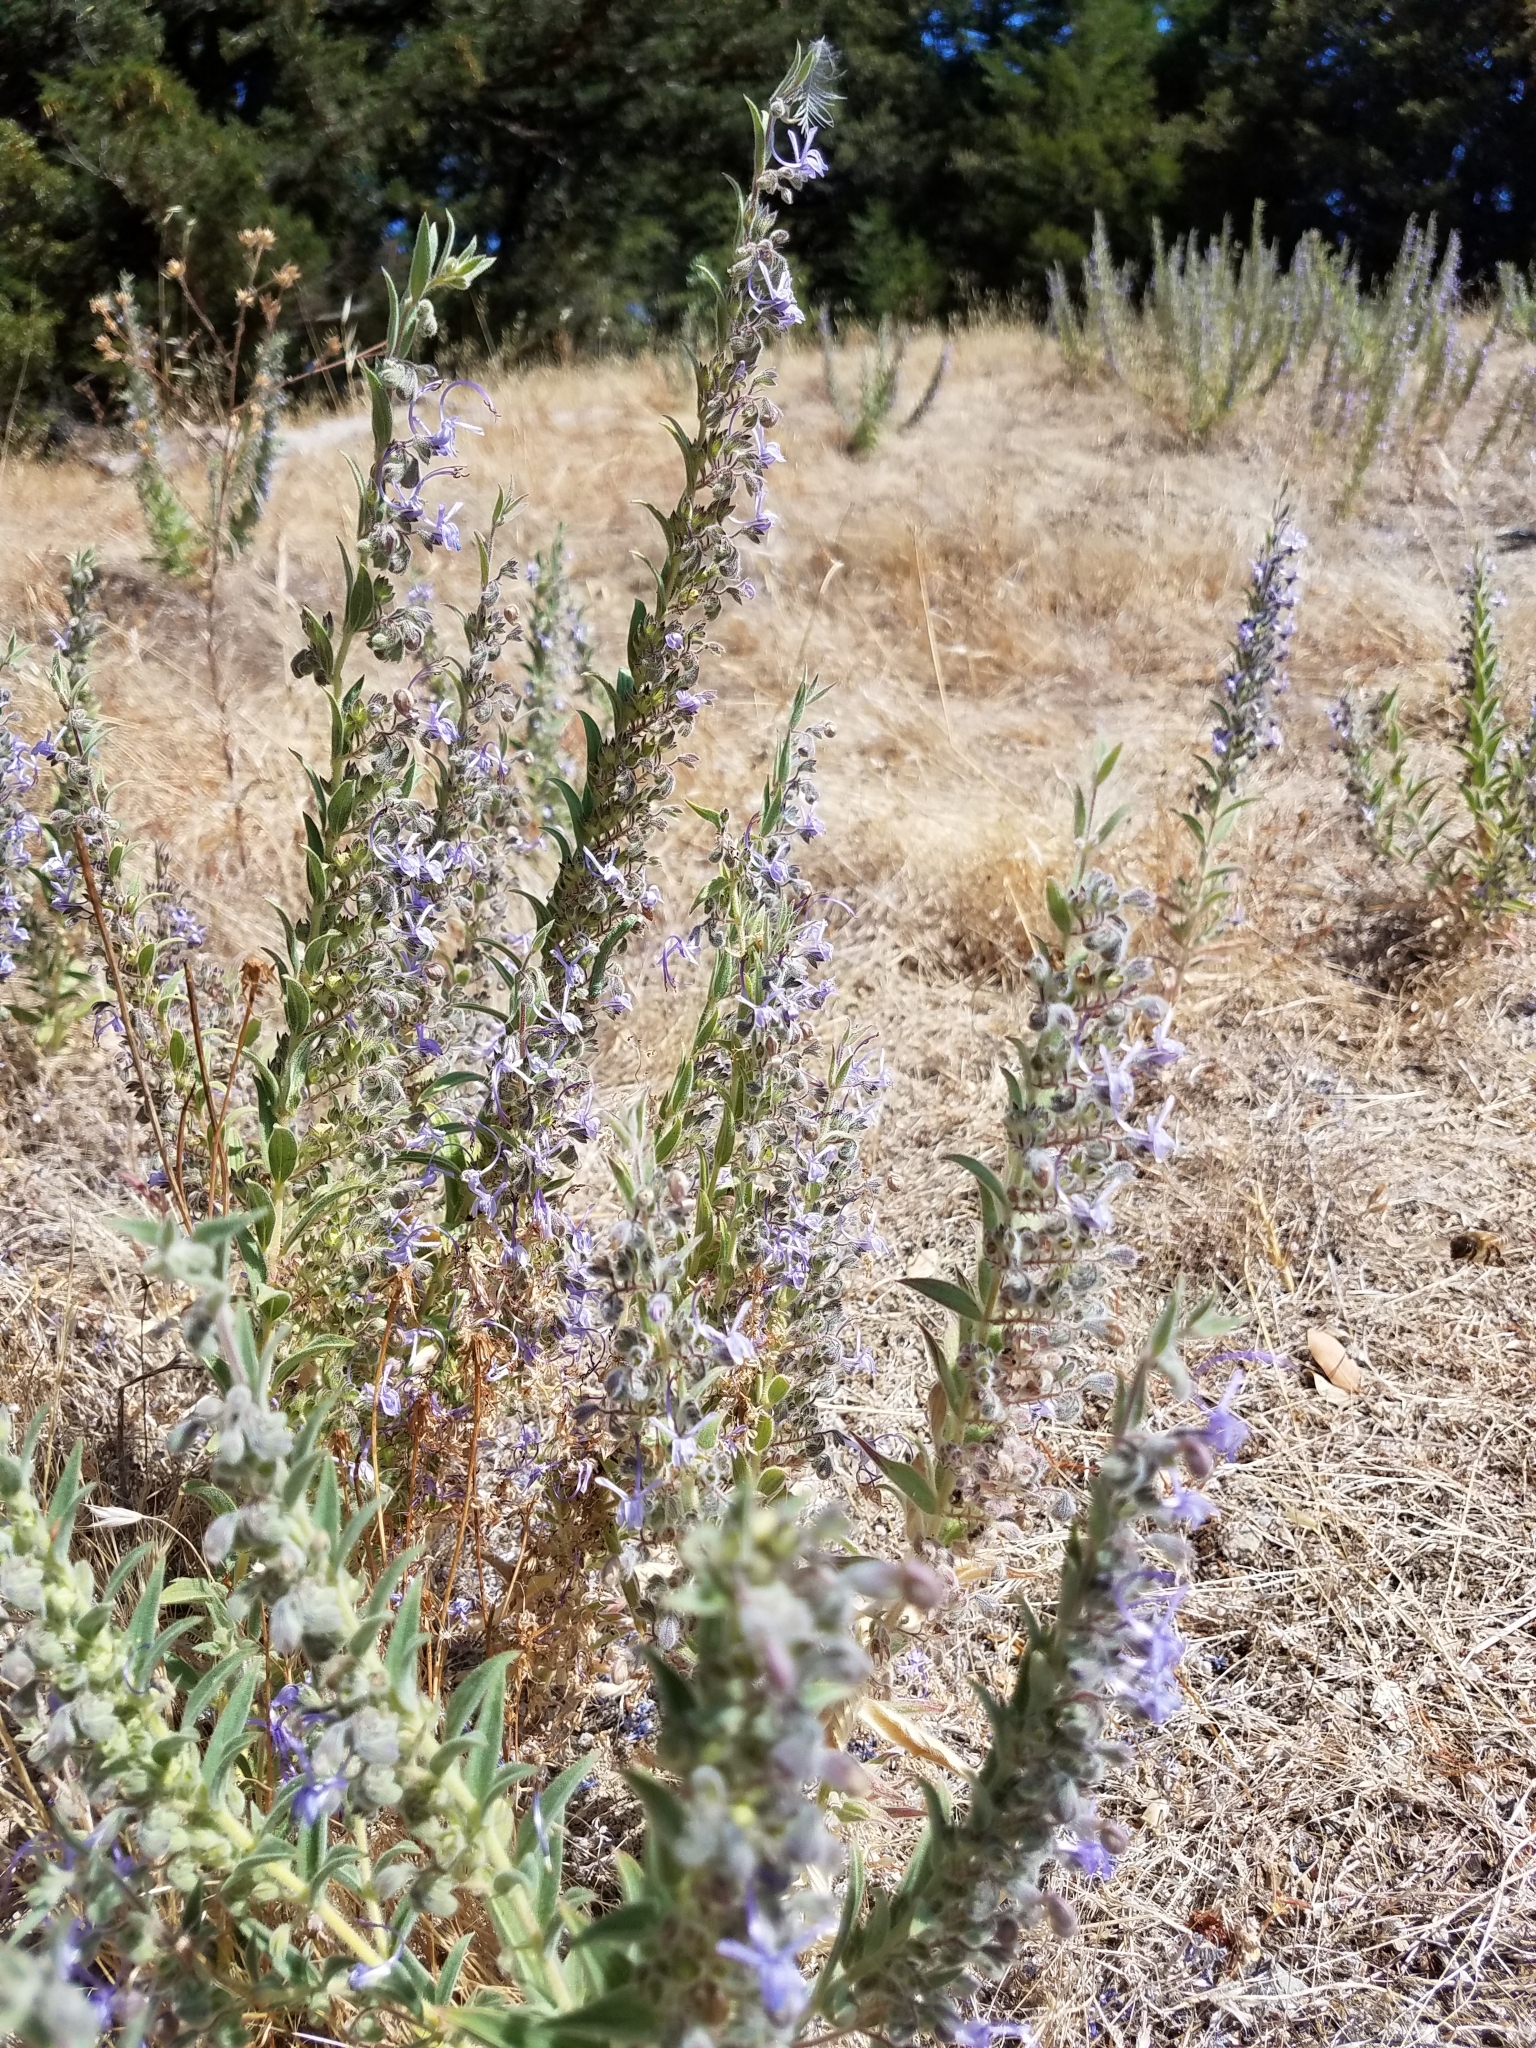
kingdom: Plantae
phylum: Tracheophyta
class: Magnoliopsida
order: Lamiales
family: Lamiaceae
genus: Trichostema
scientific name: Trichostema lanceolatum
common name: Vinegar-weed
